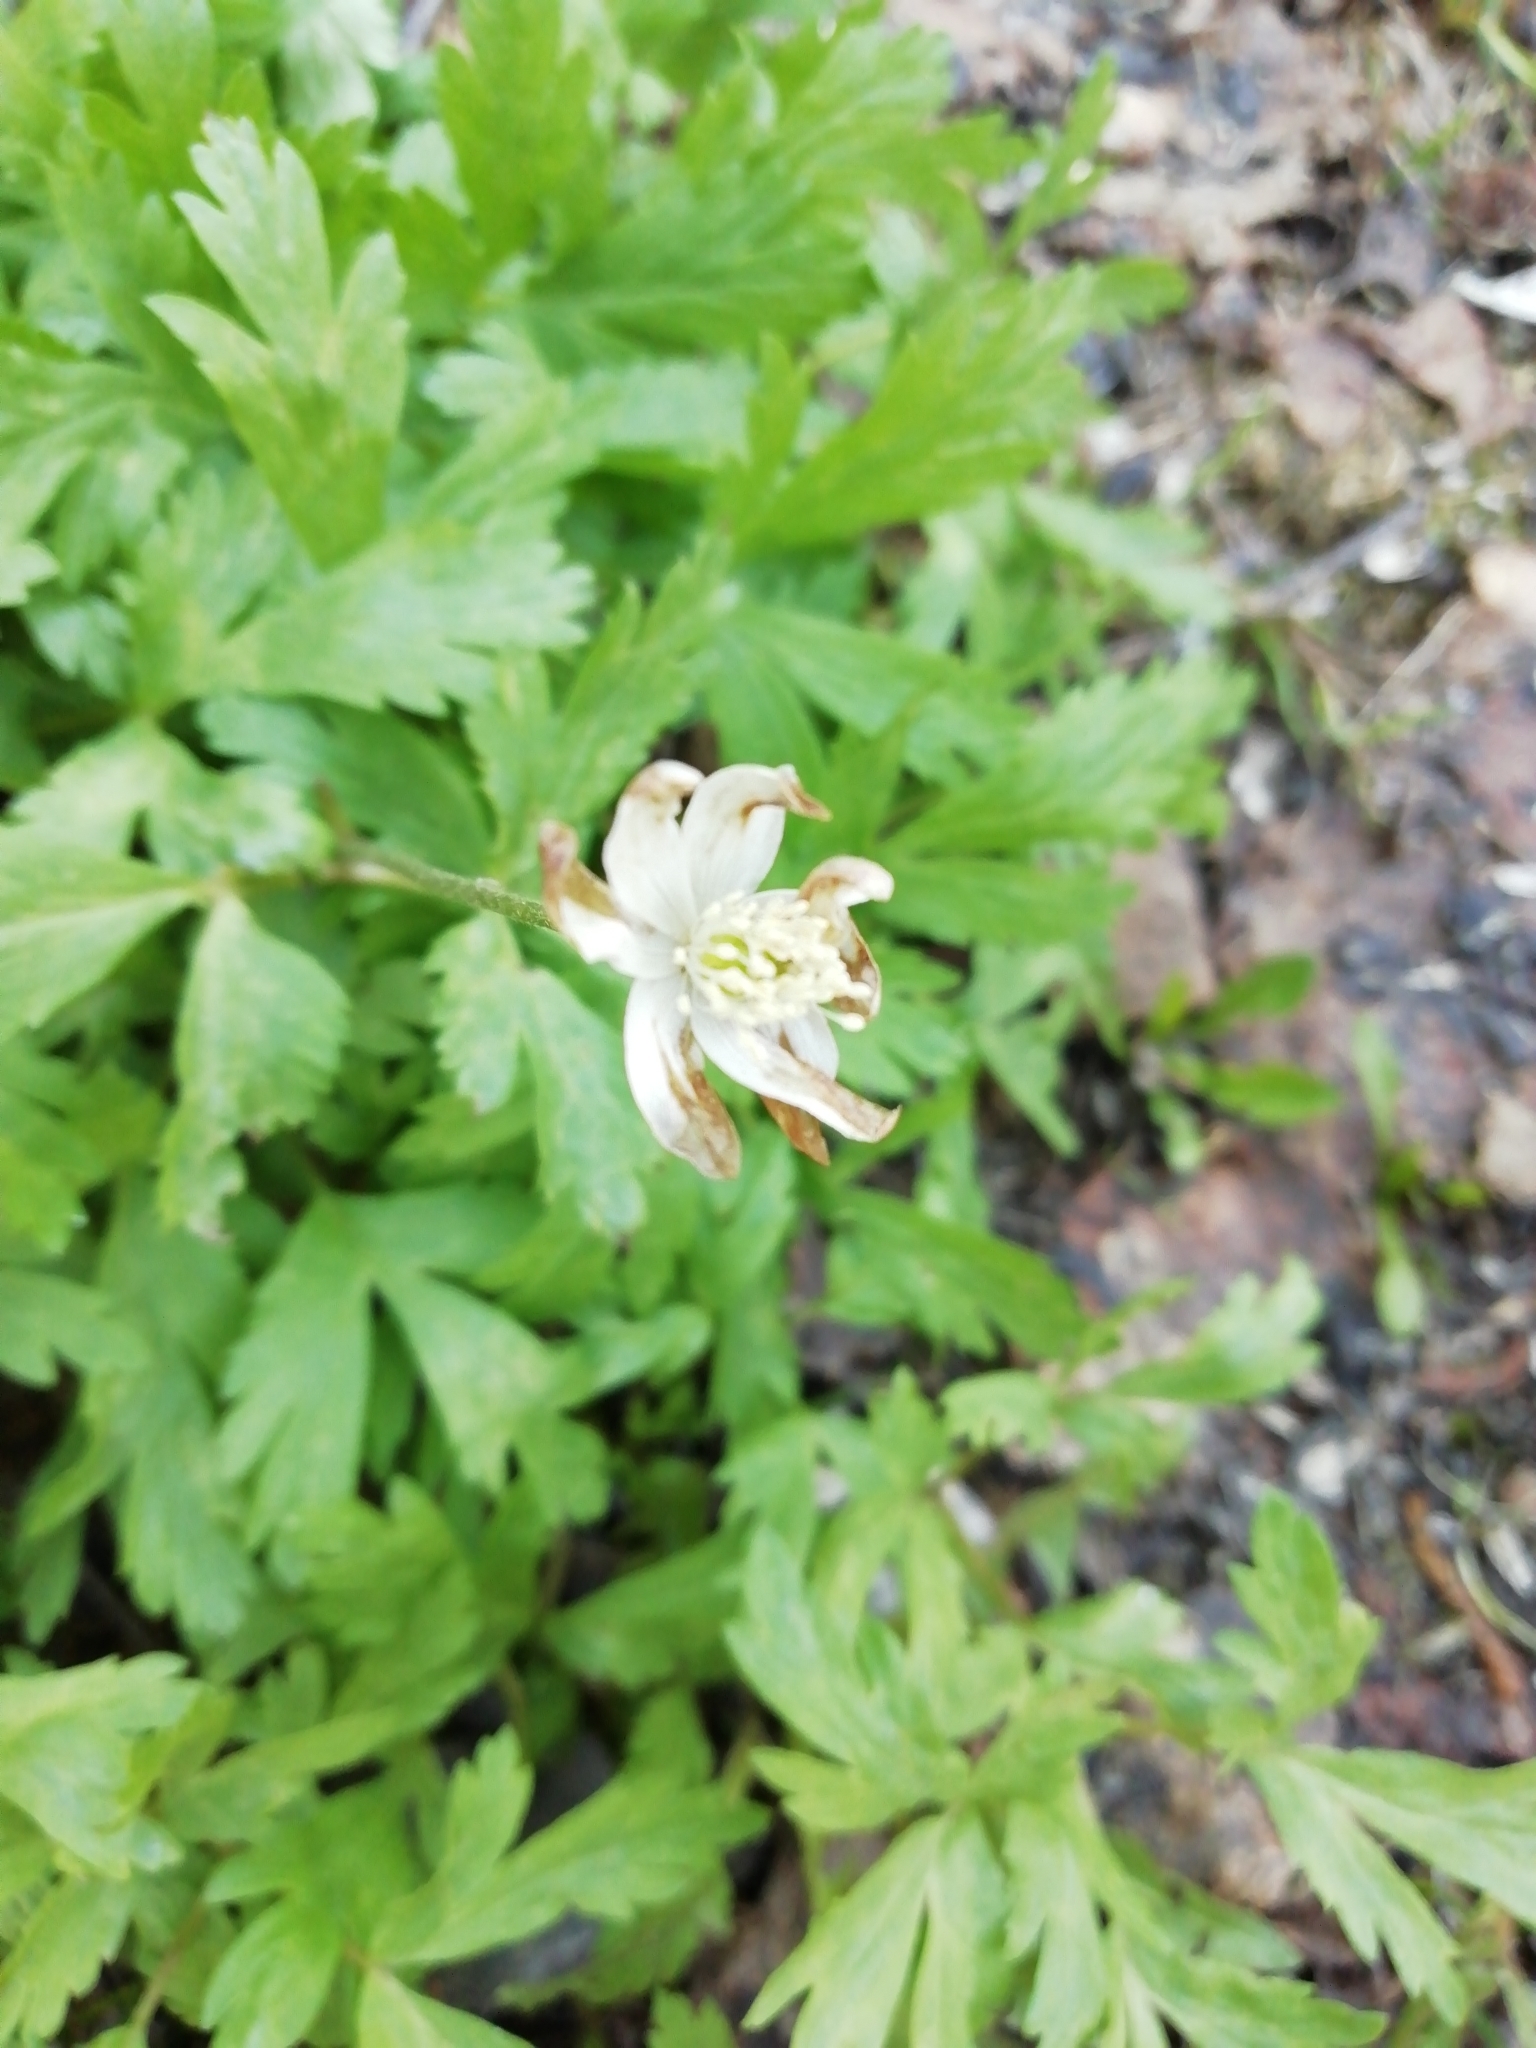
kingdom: Plantae
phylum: Tracheophyta
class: Magnoliopsida
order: Ranunculales
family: Ranunculaceae
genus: Anemone
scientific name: Anemone altaica
